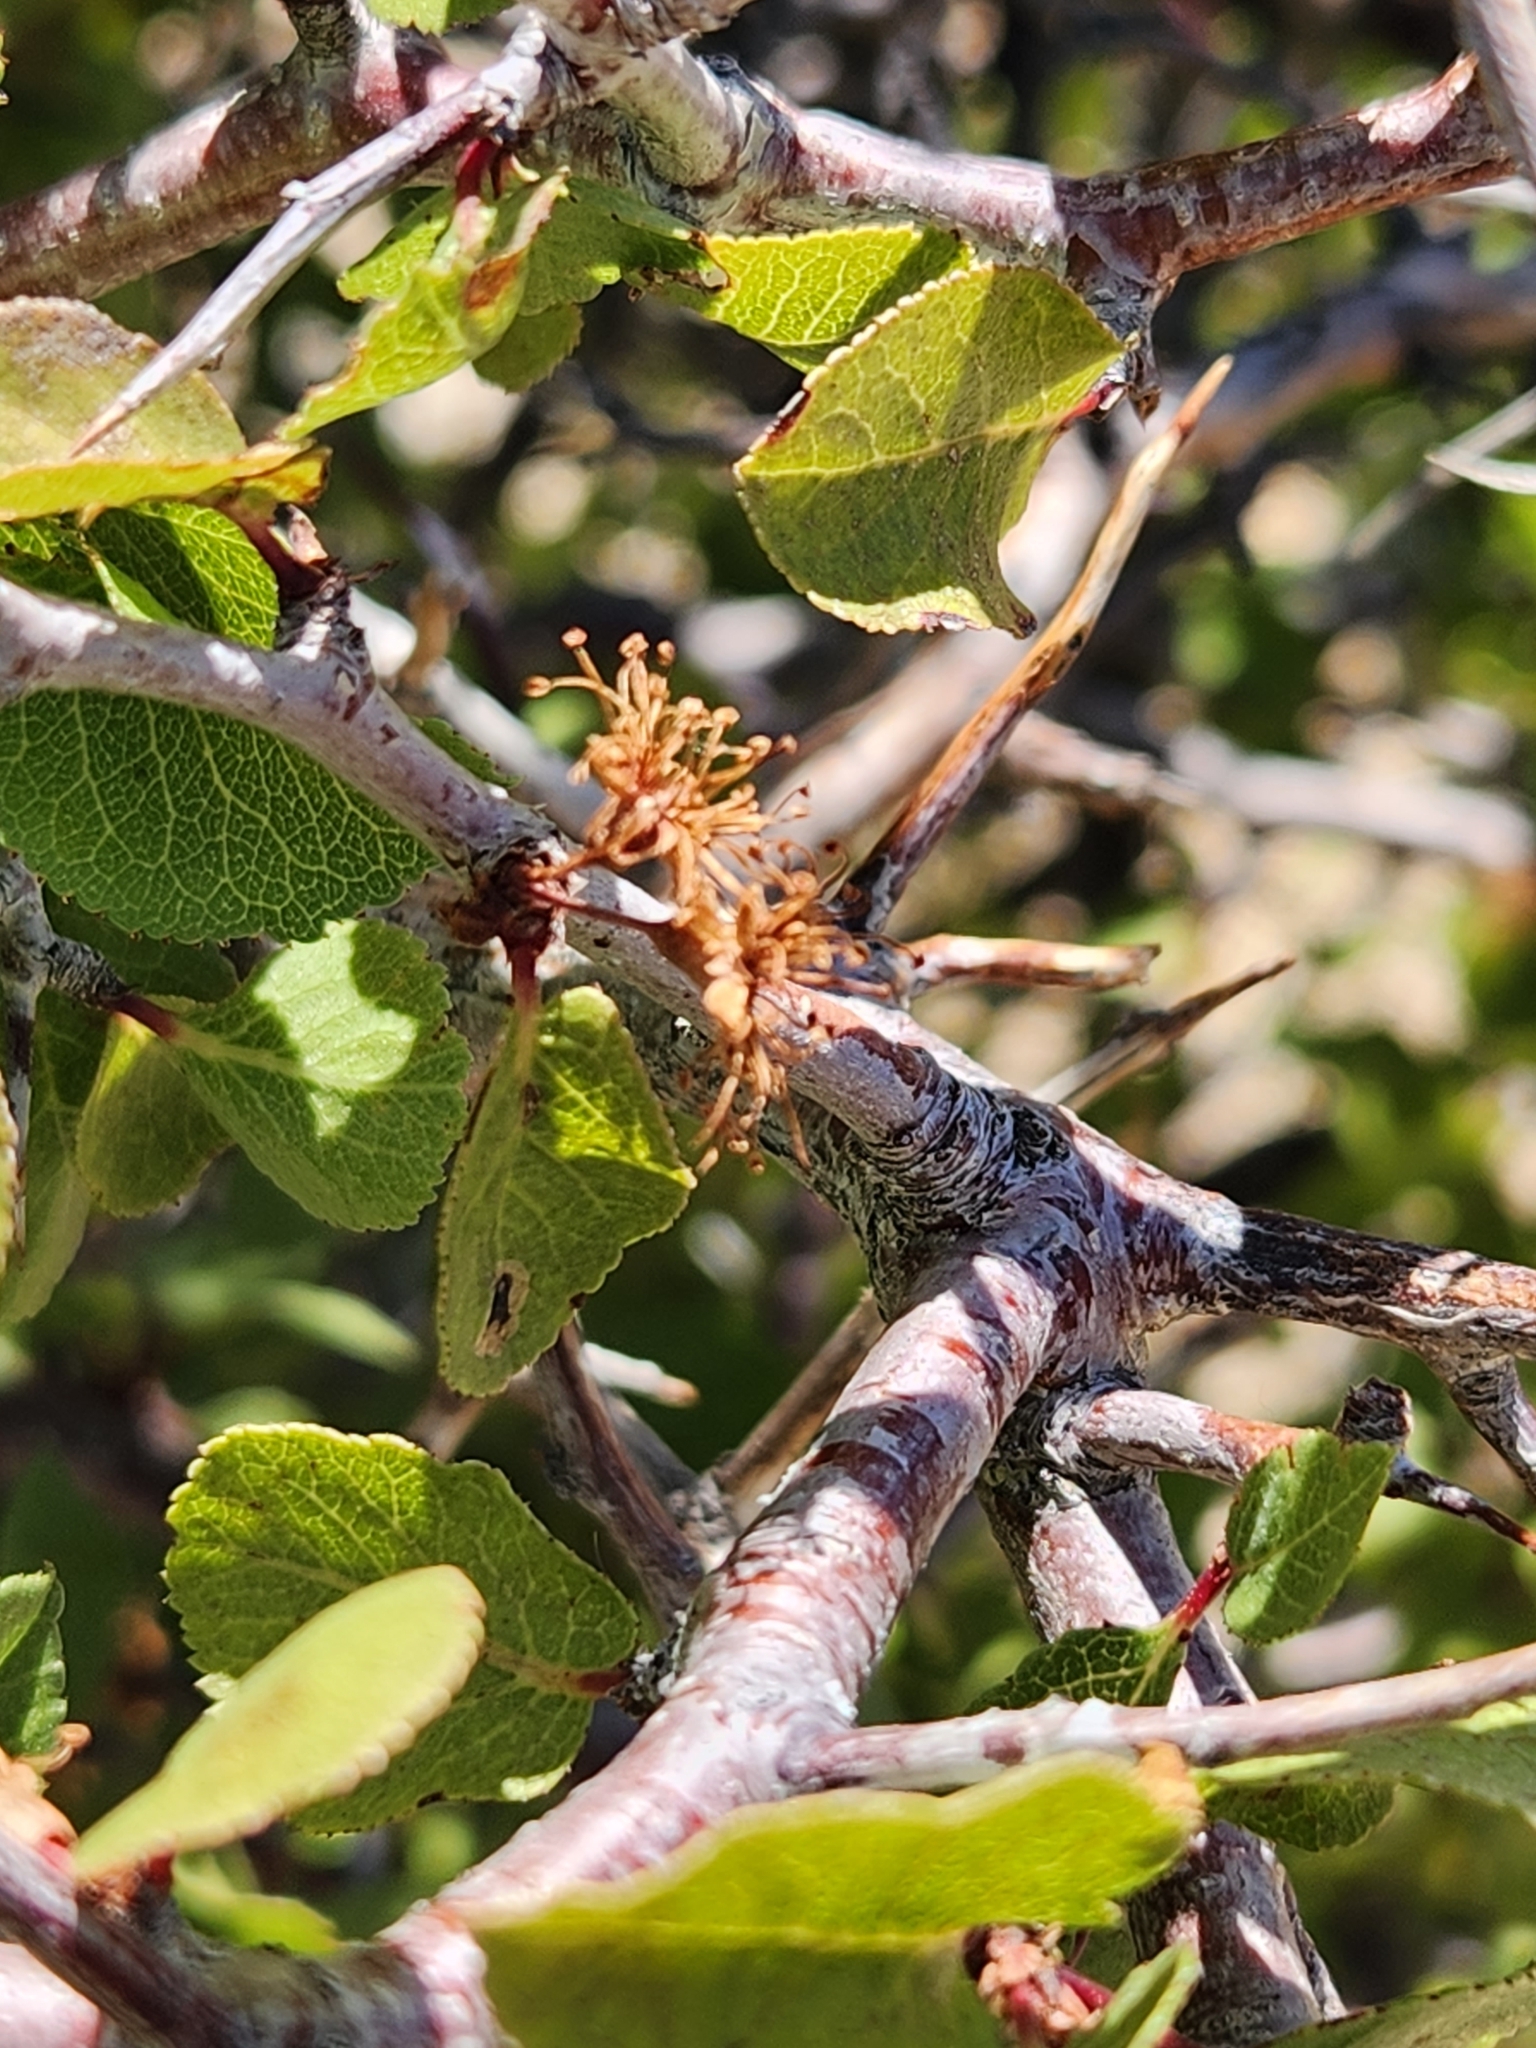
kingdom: Plantae
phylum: Tracheophyta
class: Magnoliopsida
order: Rosales
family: Rosaceae
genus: Prunus
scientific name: Prunus fremontii
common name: Desert apricot
